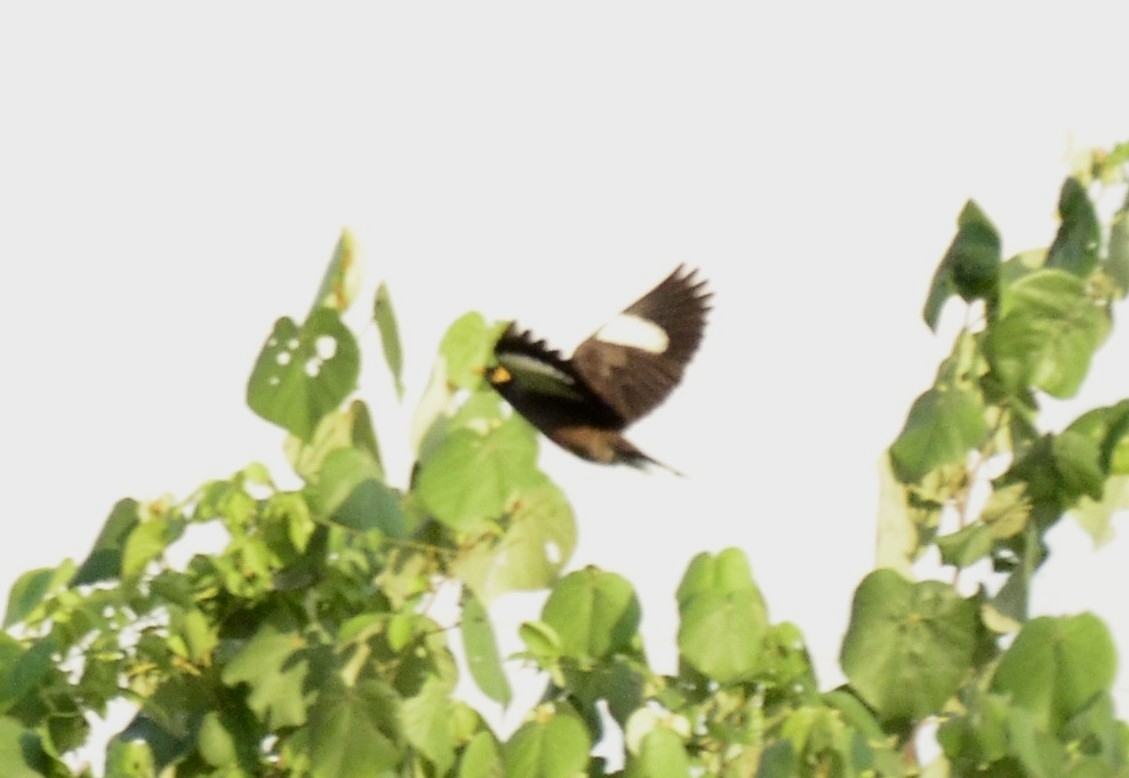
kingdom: Animalia
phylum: Chordata
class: Aves
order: Passeriformes
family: Sturnidae
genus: Acridotheres
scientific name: Acridotheres tristis
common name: Common myna
